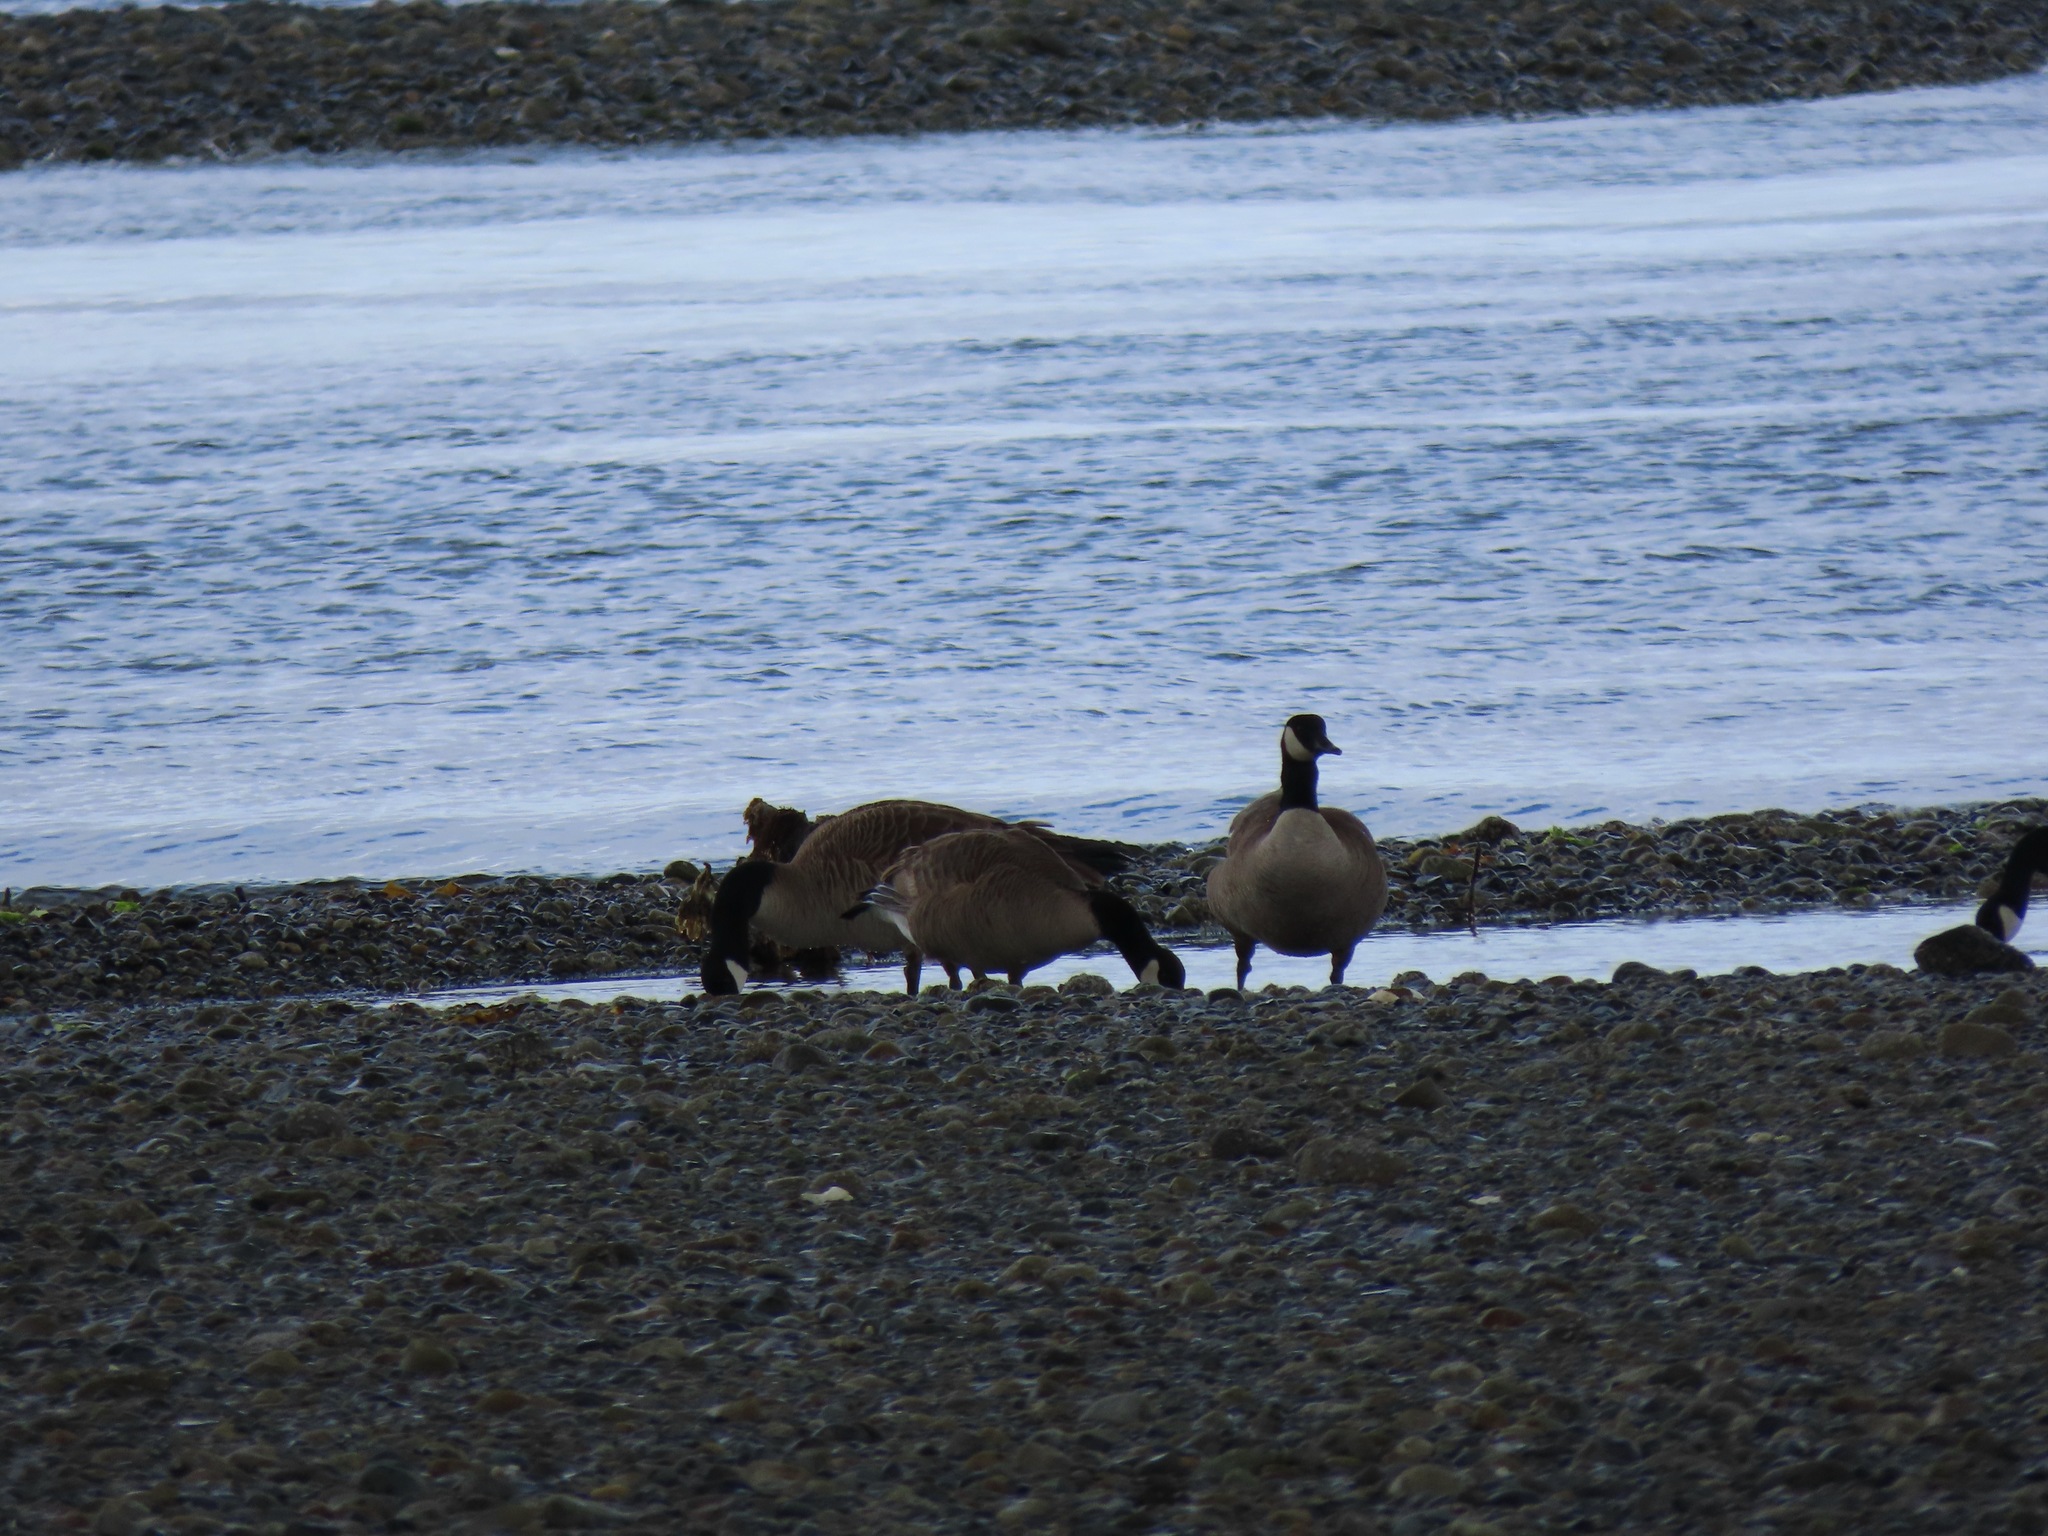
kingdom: Animalia
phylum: Chordata
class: Aves
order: Anseriformes
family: Anatidae
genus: Branta
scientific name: Branta canadensis
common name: Canada goose
